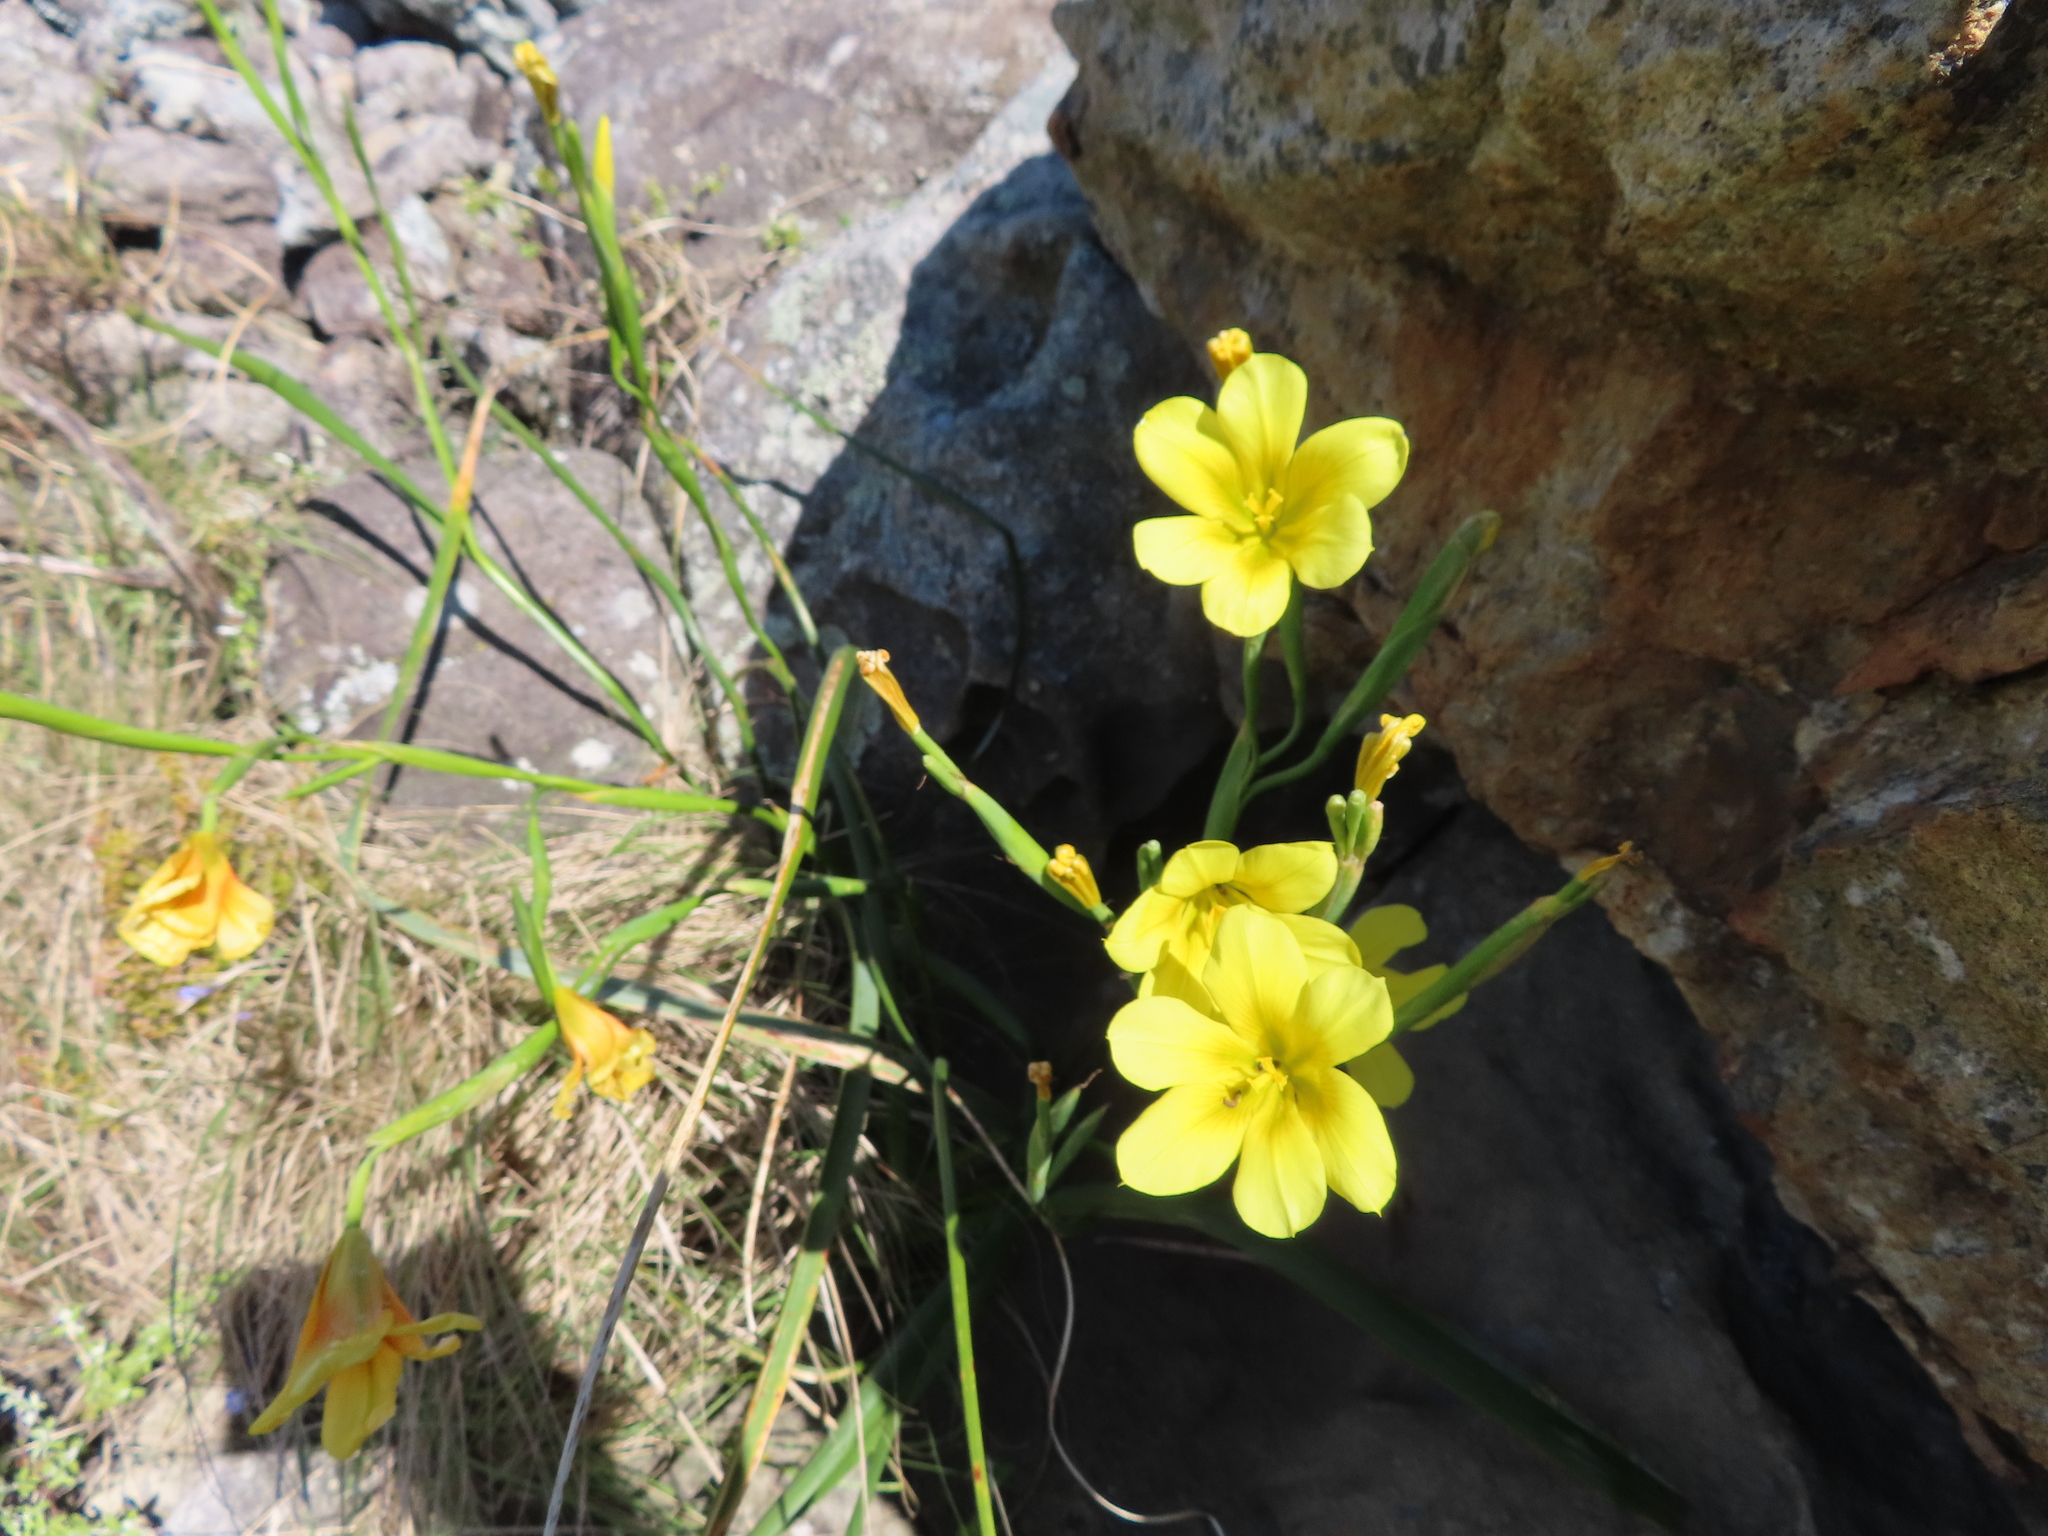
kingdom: Plantae
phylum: Tracheophyta
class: Liliopsida
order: Asparagales
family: Iridaceae
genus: Moraea
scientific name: Moraea ochroleuca
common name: Red tulp
